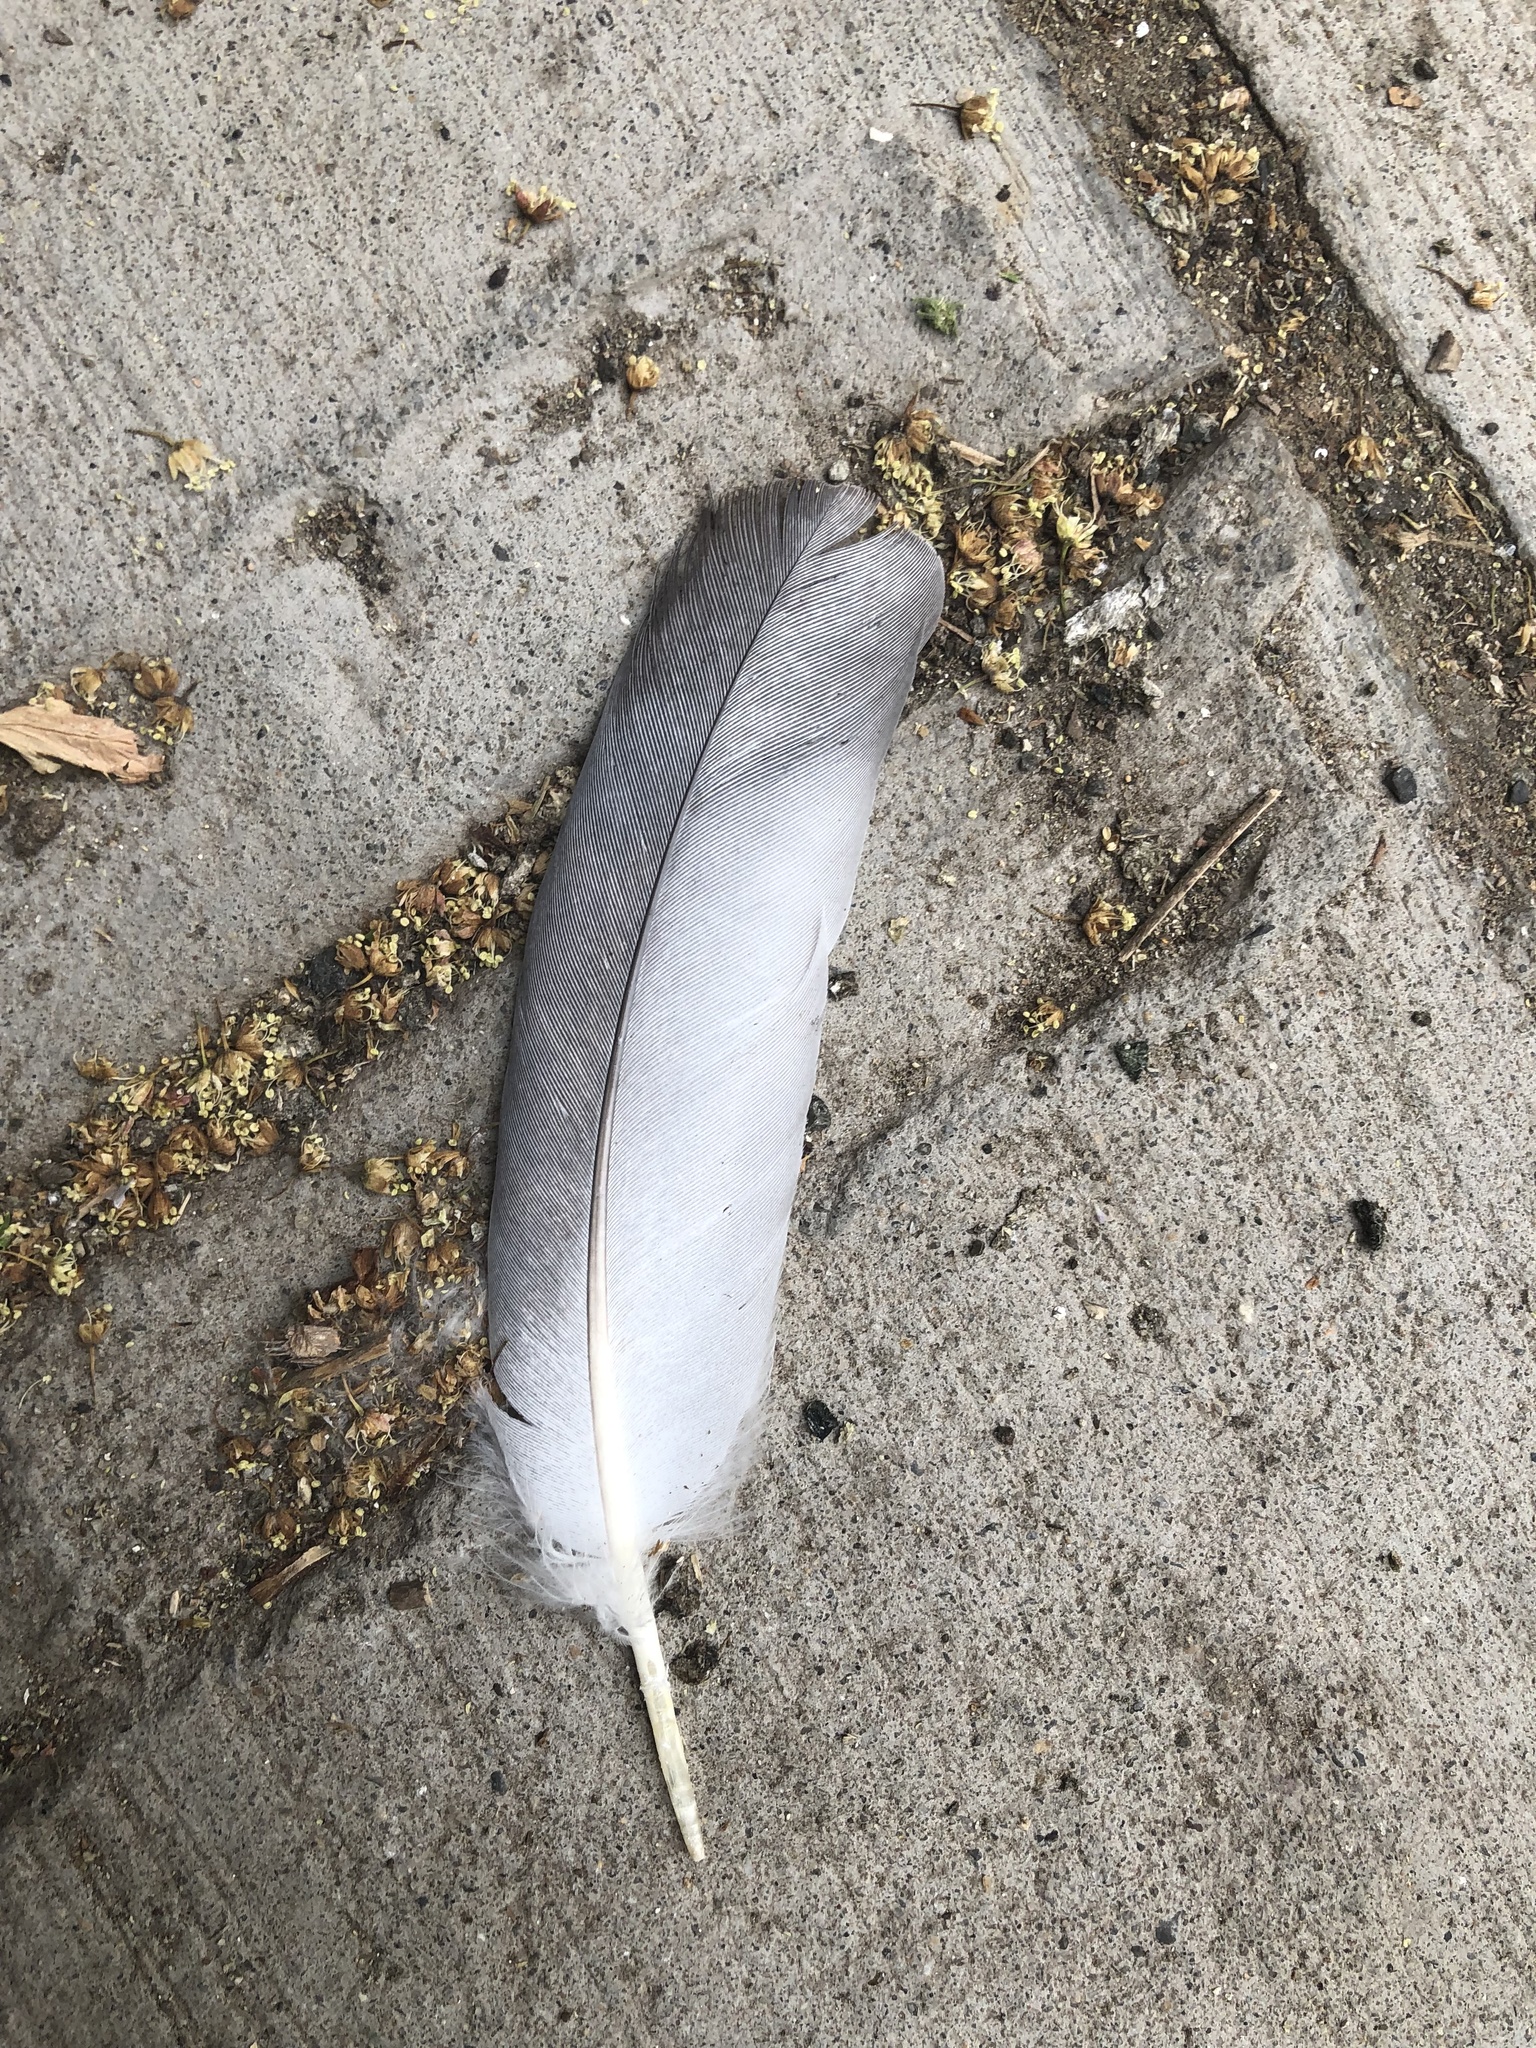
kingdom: Animalia
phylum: Chordata
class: Aves
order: Columbiformes
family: Columbidae
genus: Columba
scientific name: Columba livia
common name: Rock pigeon
